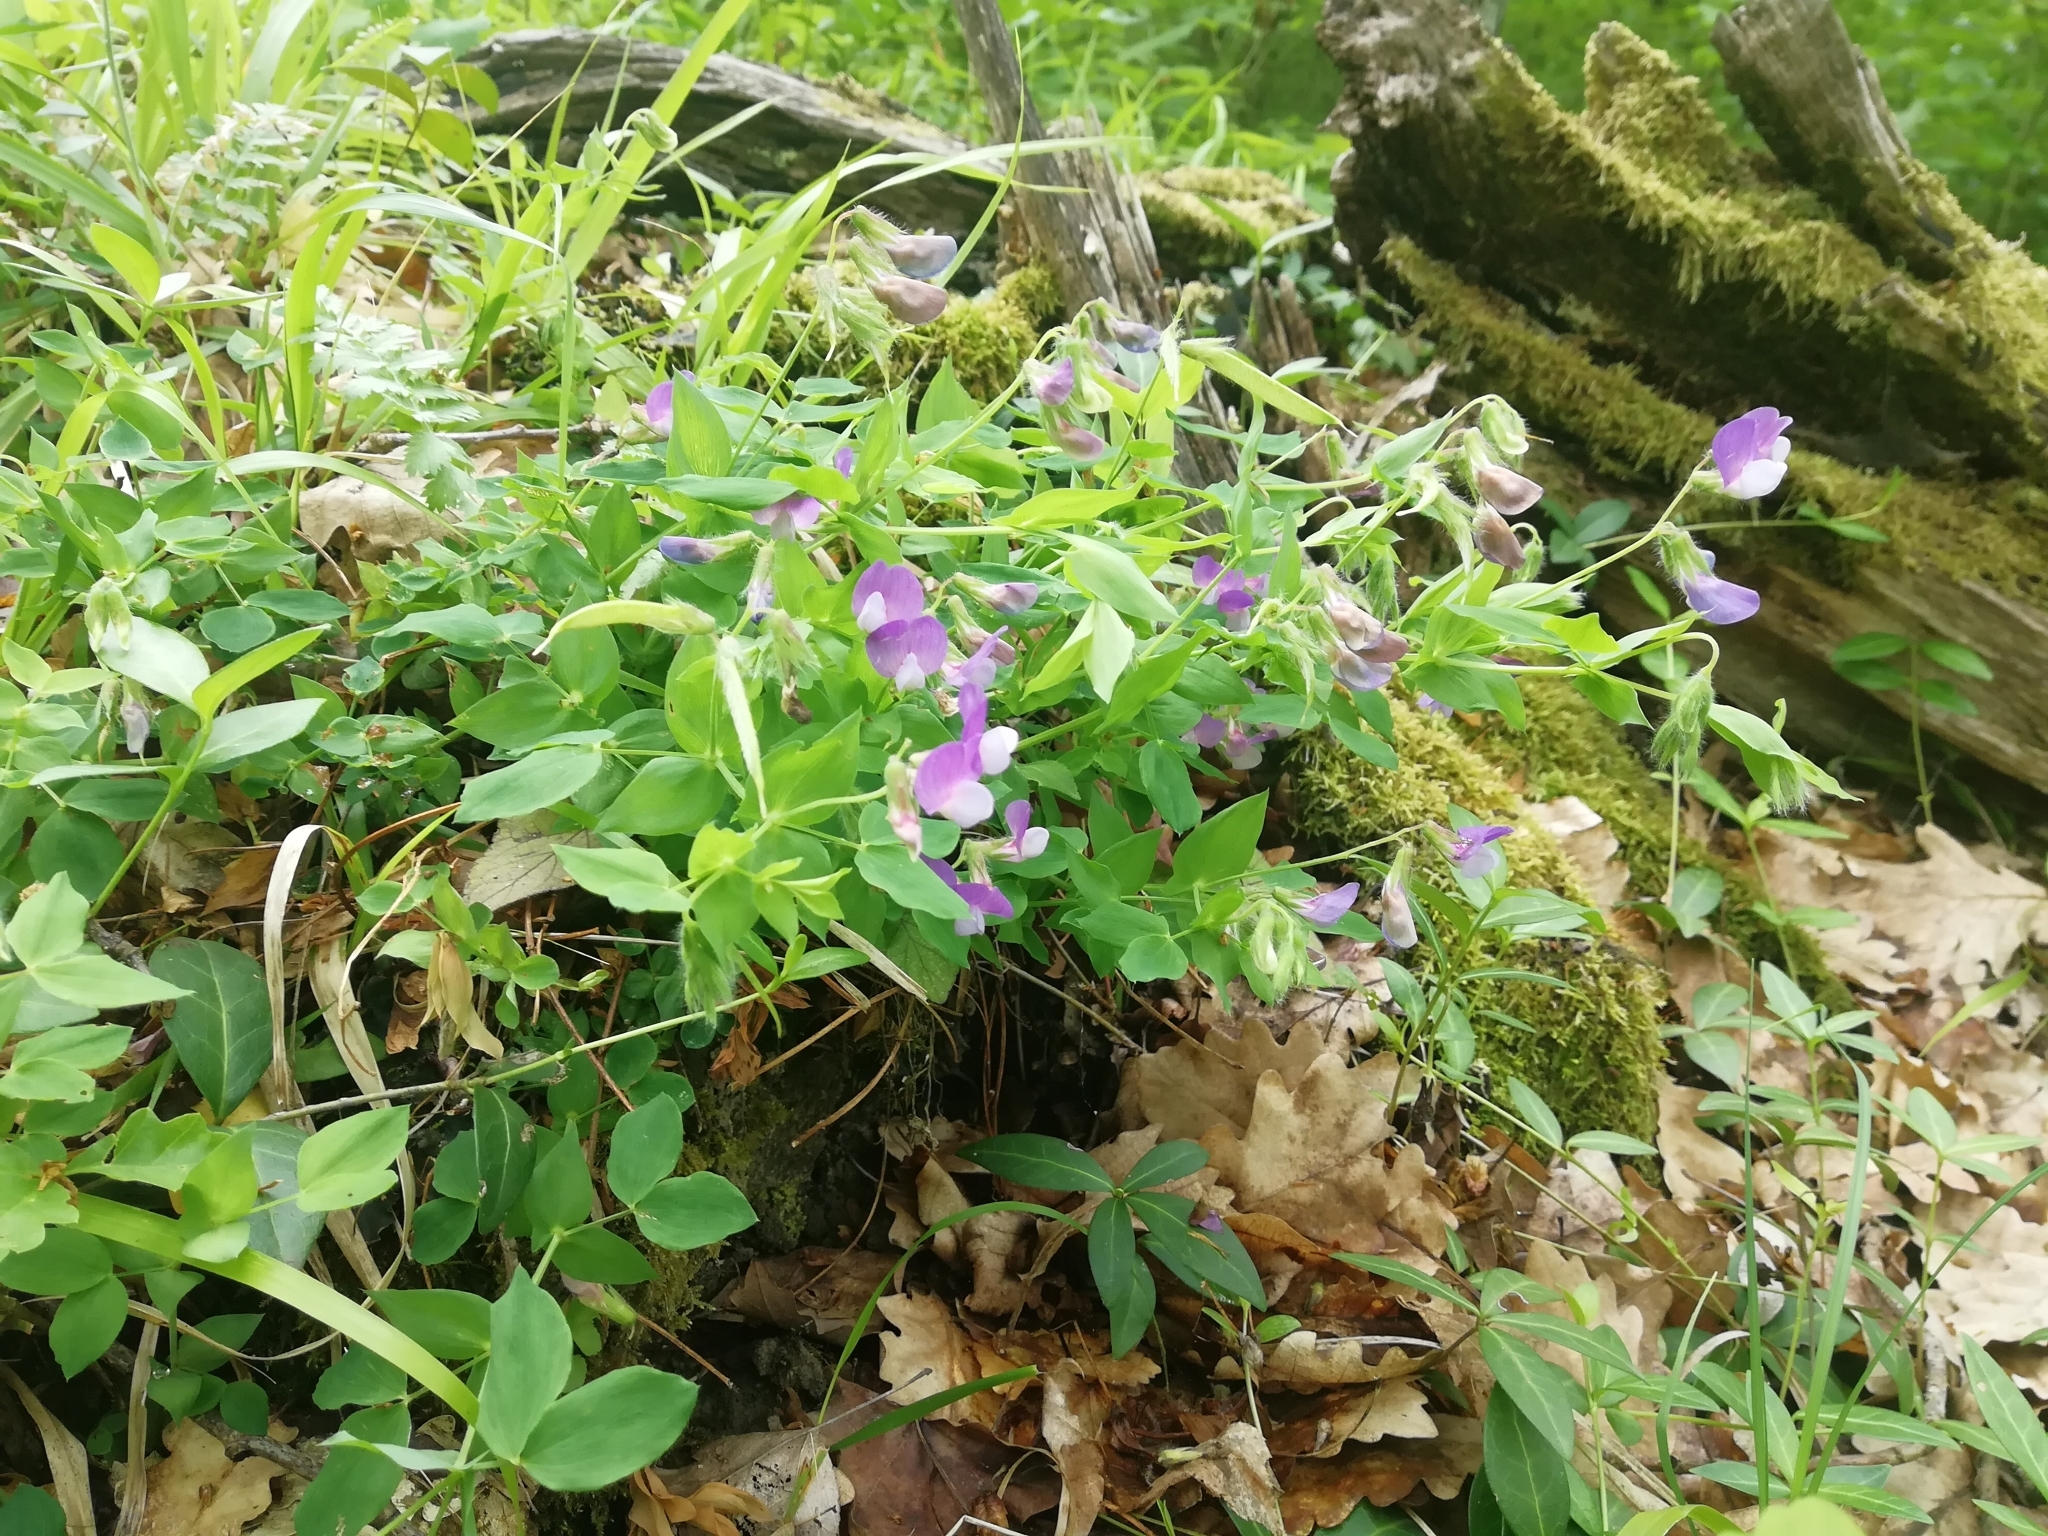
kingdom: Plantae
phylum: Tracheophyta
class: Magnoliopsida
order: Fabales
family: Fabaceae
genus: Lathyrus
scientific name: Lathyrus laxiflorus
